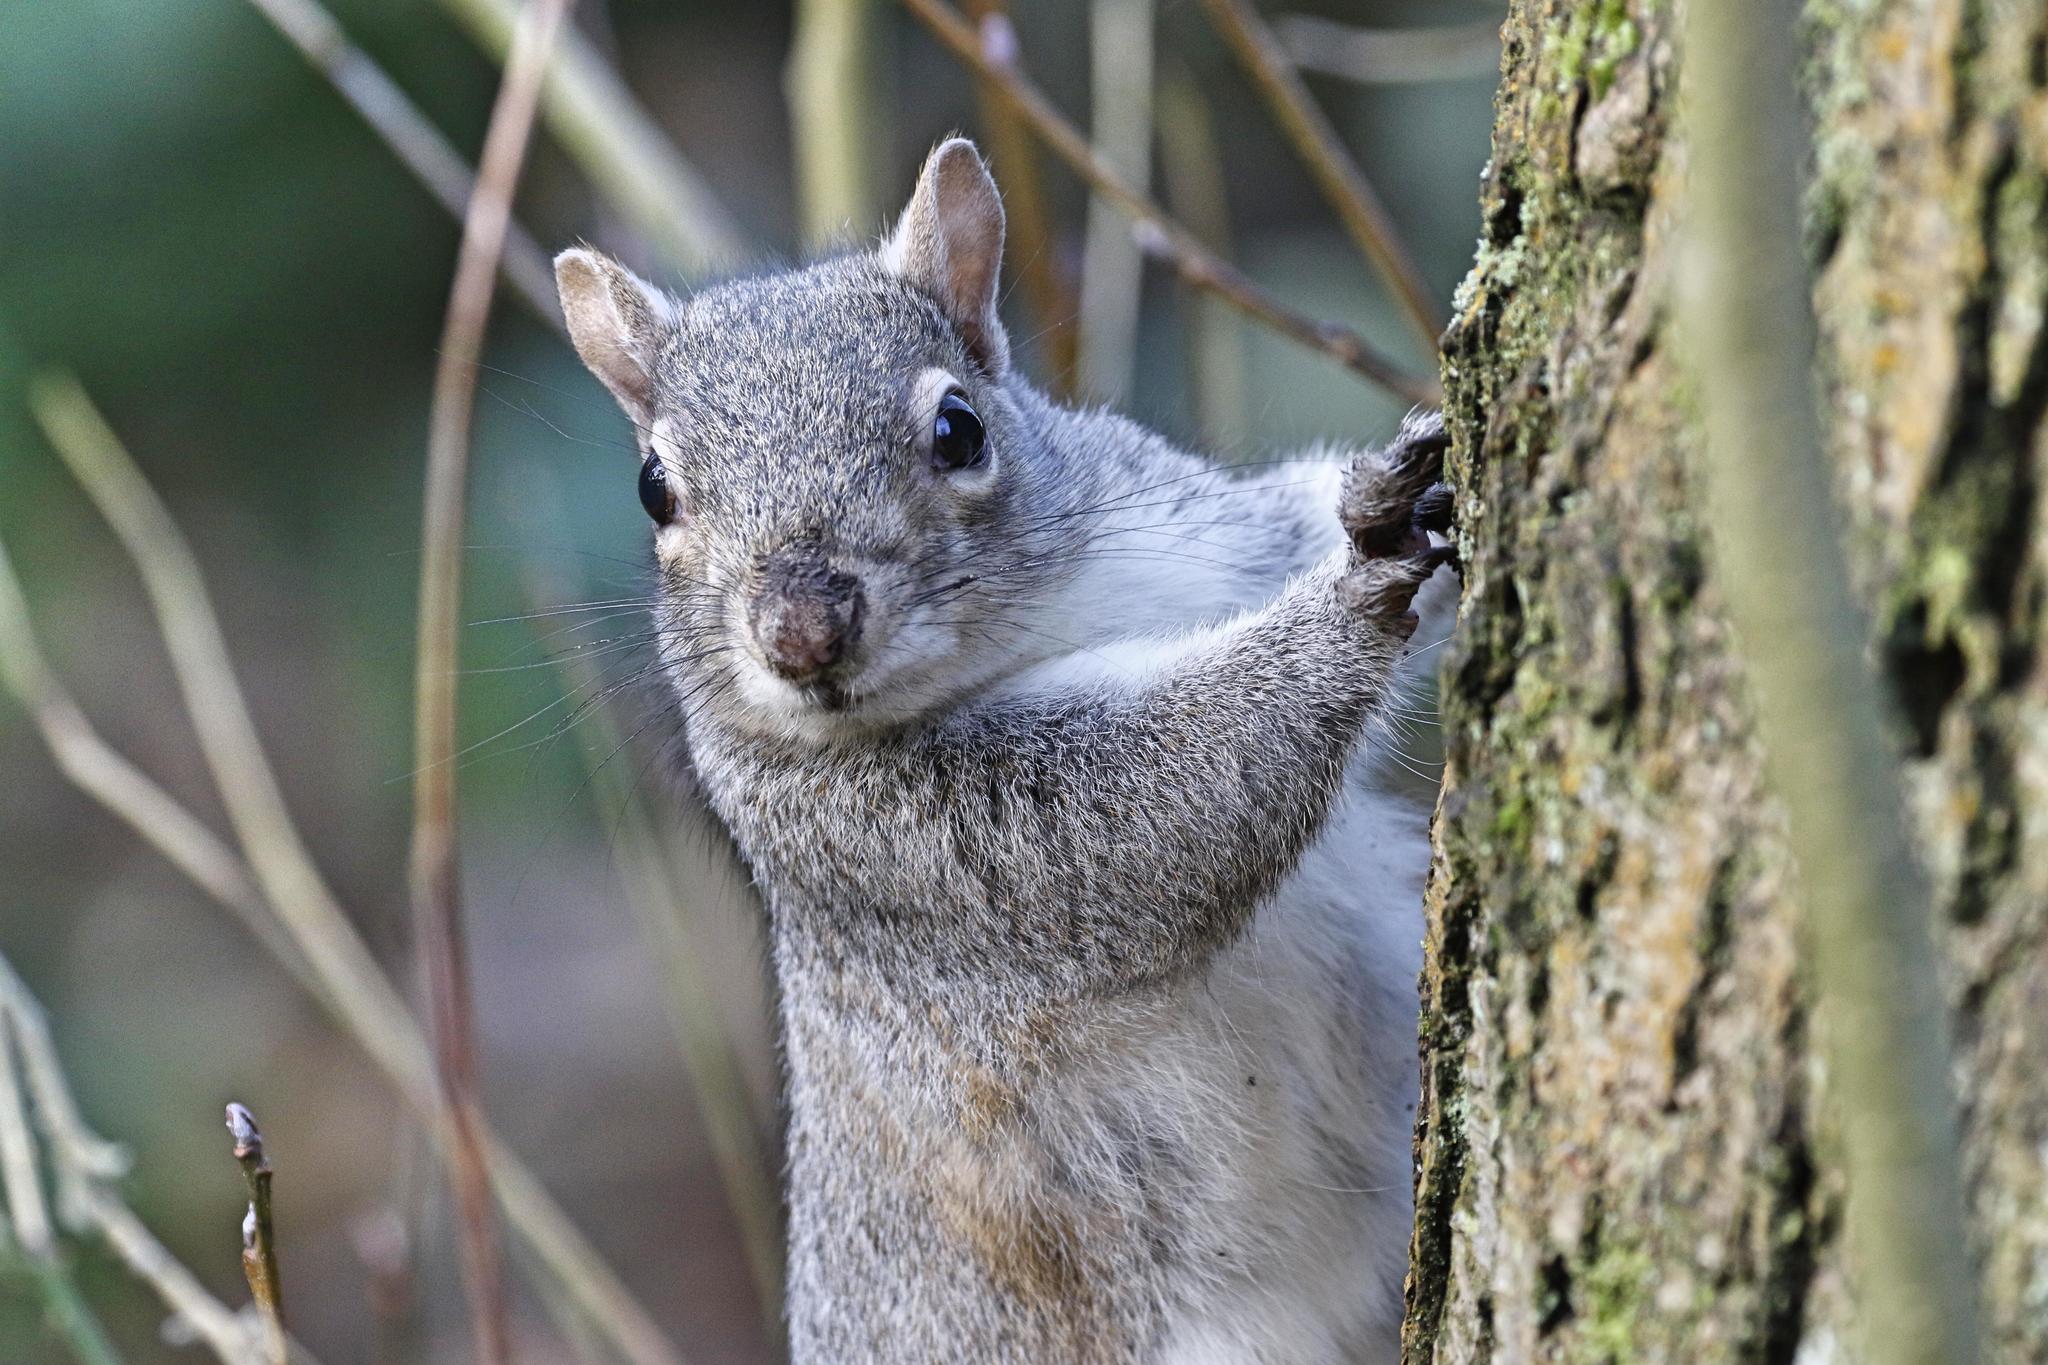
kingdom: Animalia
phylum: Chordata
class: Mammalia
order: Rodentia
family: Sciuridae
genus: Sciurus
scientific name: Sciurus carolinensis
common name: Eastern gray squirrel
